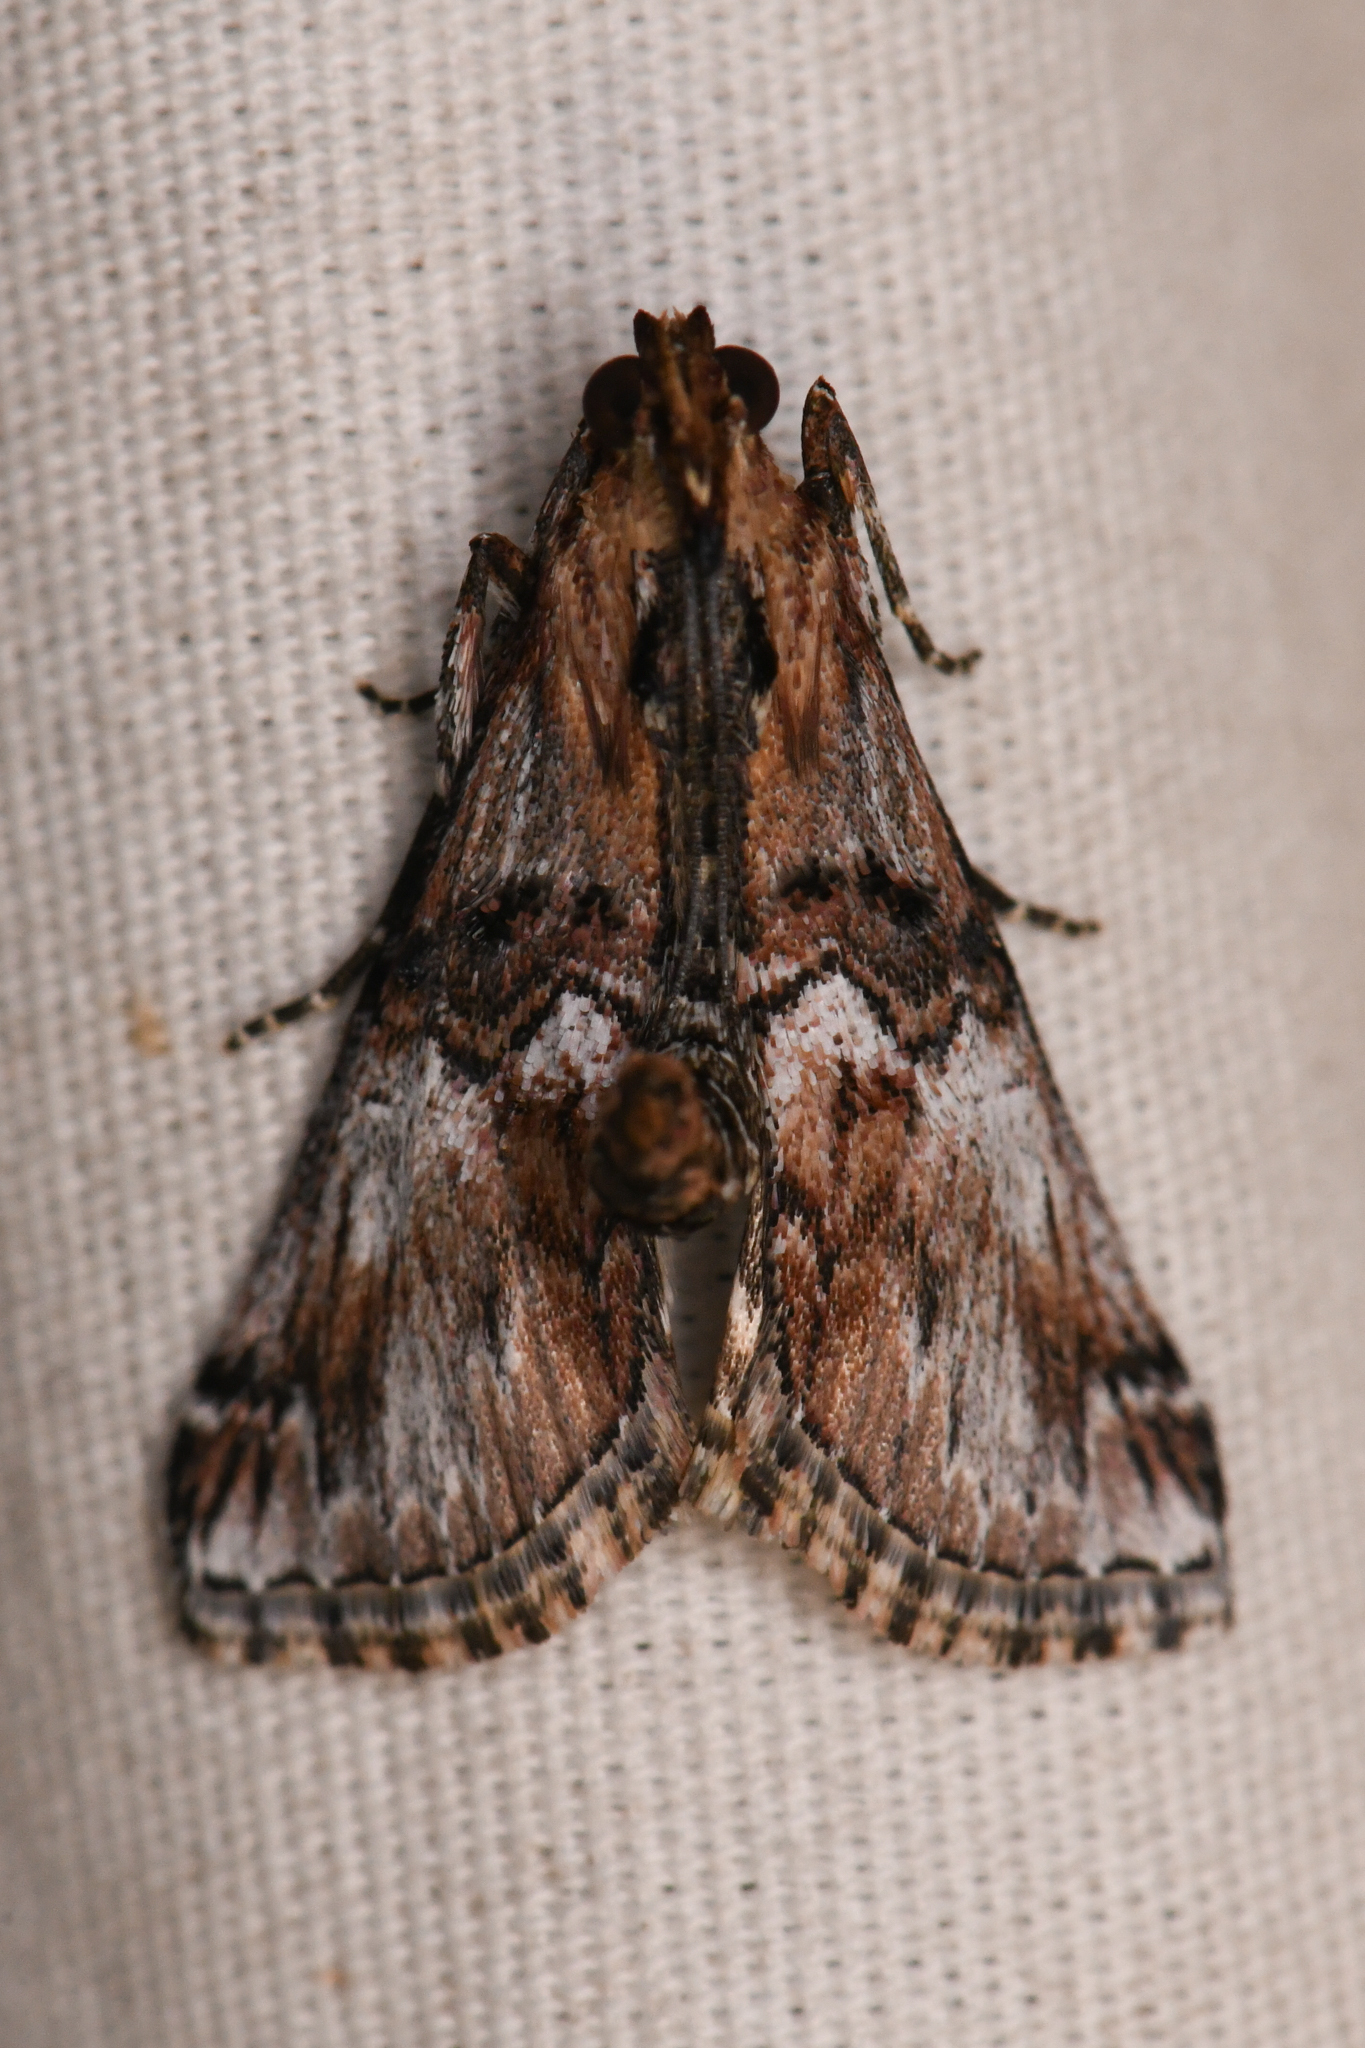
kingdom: Animalia
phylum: Arthropoda
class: Insecta
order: Lepidoptera
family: Pyralidae
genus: Toripalpus
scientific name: Toripalpus trabalis
